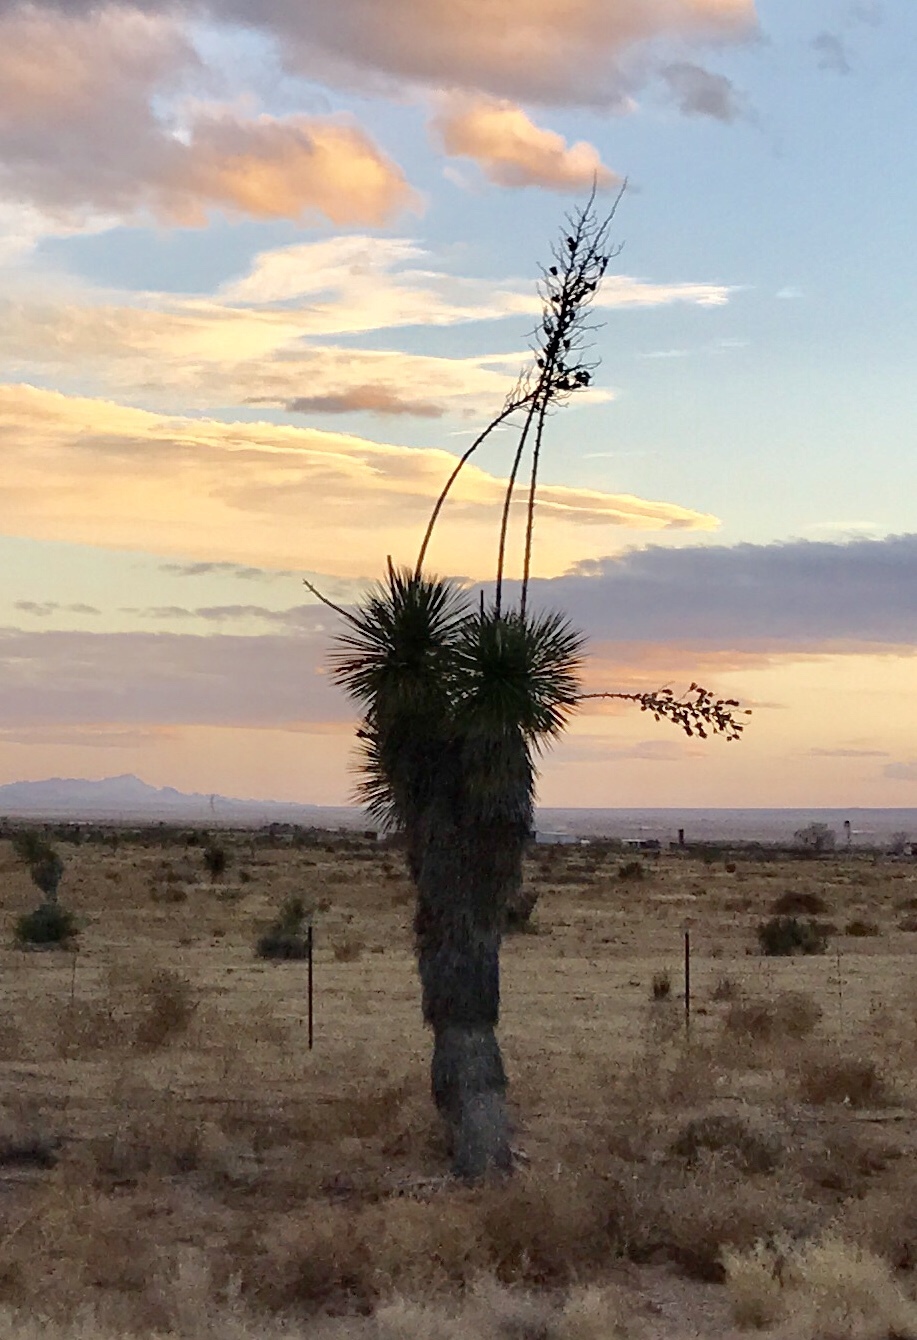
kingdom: Plantae
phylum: Tracheophyta
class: Liliopsida
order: Asparagales
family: Asparagaceae
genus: Yucca
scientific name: Yucca elata
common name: Palmella
